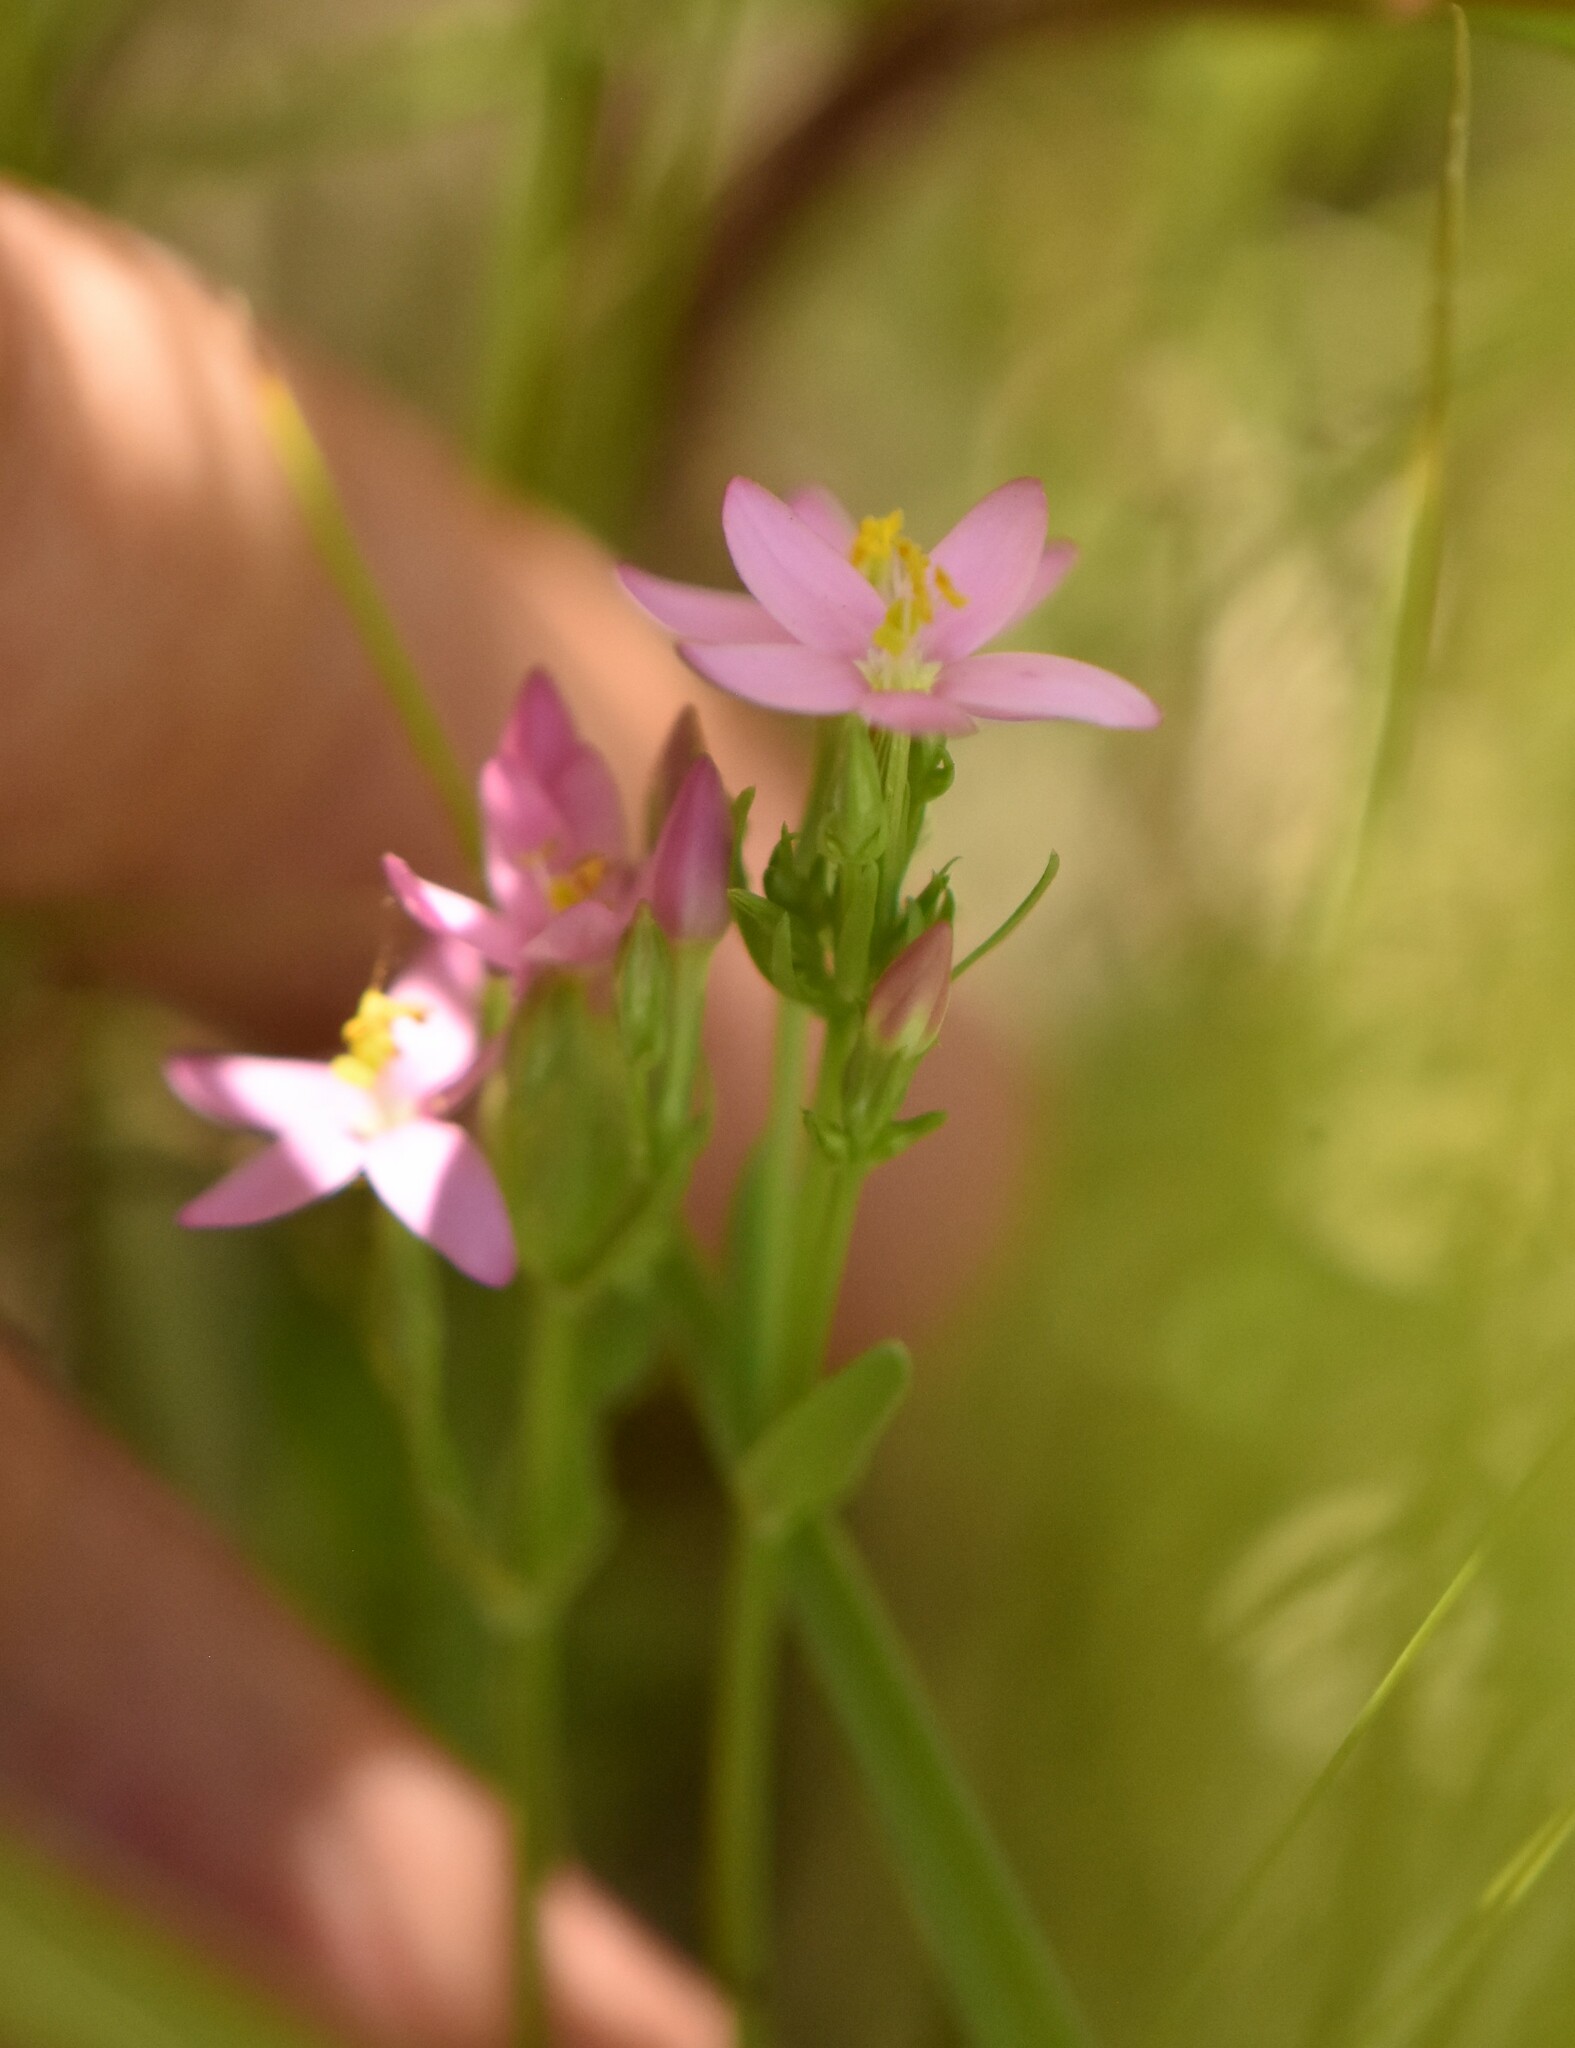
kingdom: Plantae
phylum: Tracheophyta
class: Magnoliopsida
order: Gentianales
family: Gentianaceae
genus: Centaurium
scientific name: Centaurium erythraea
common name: Common centaury
